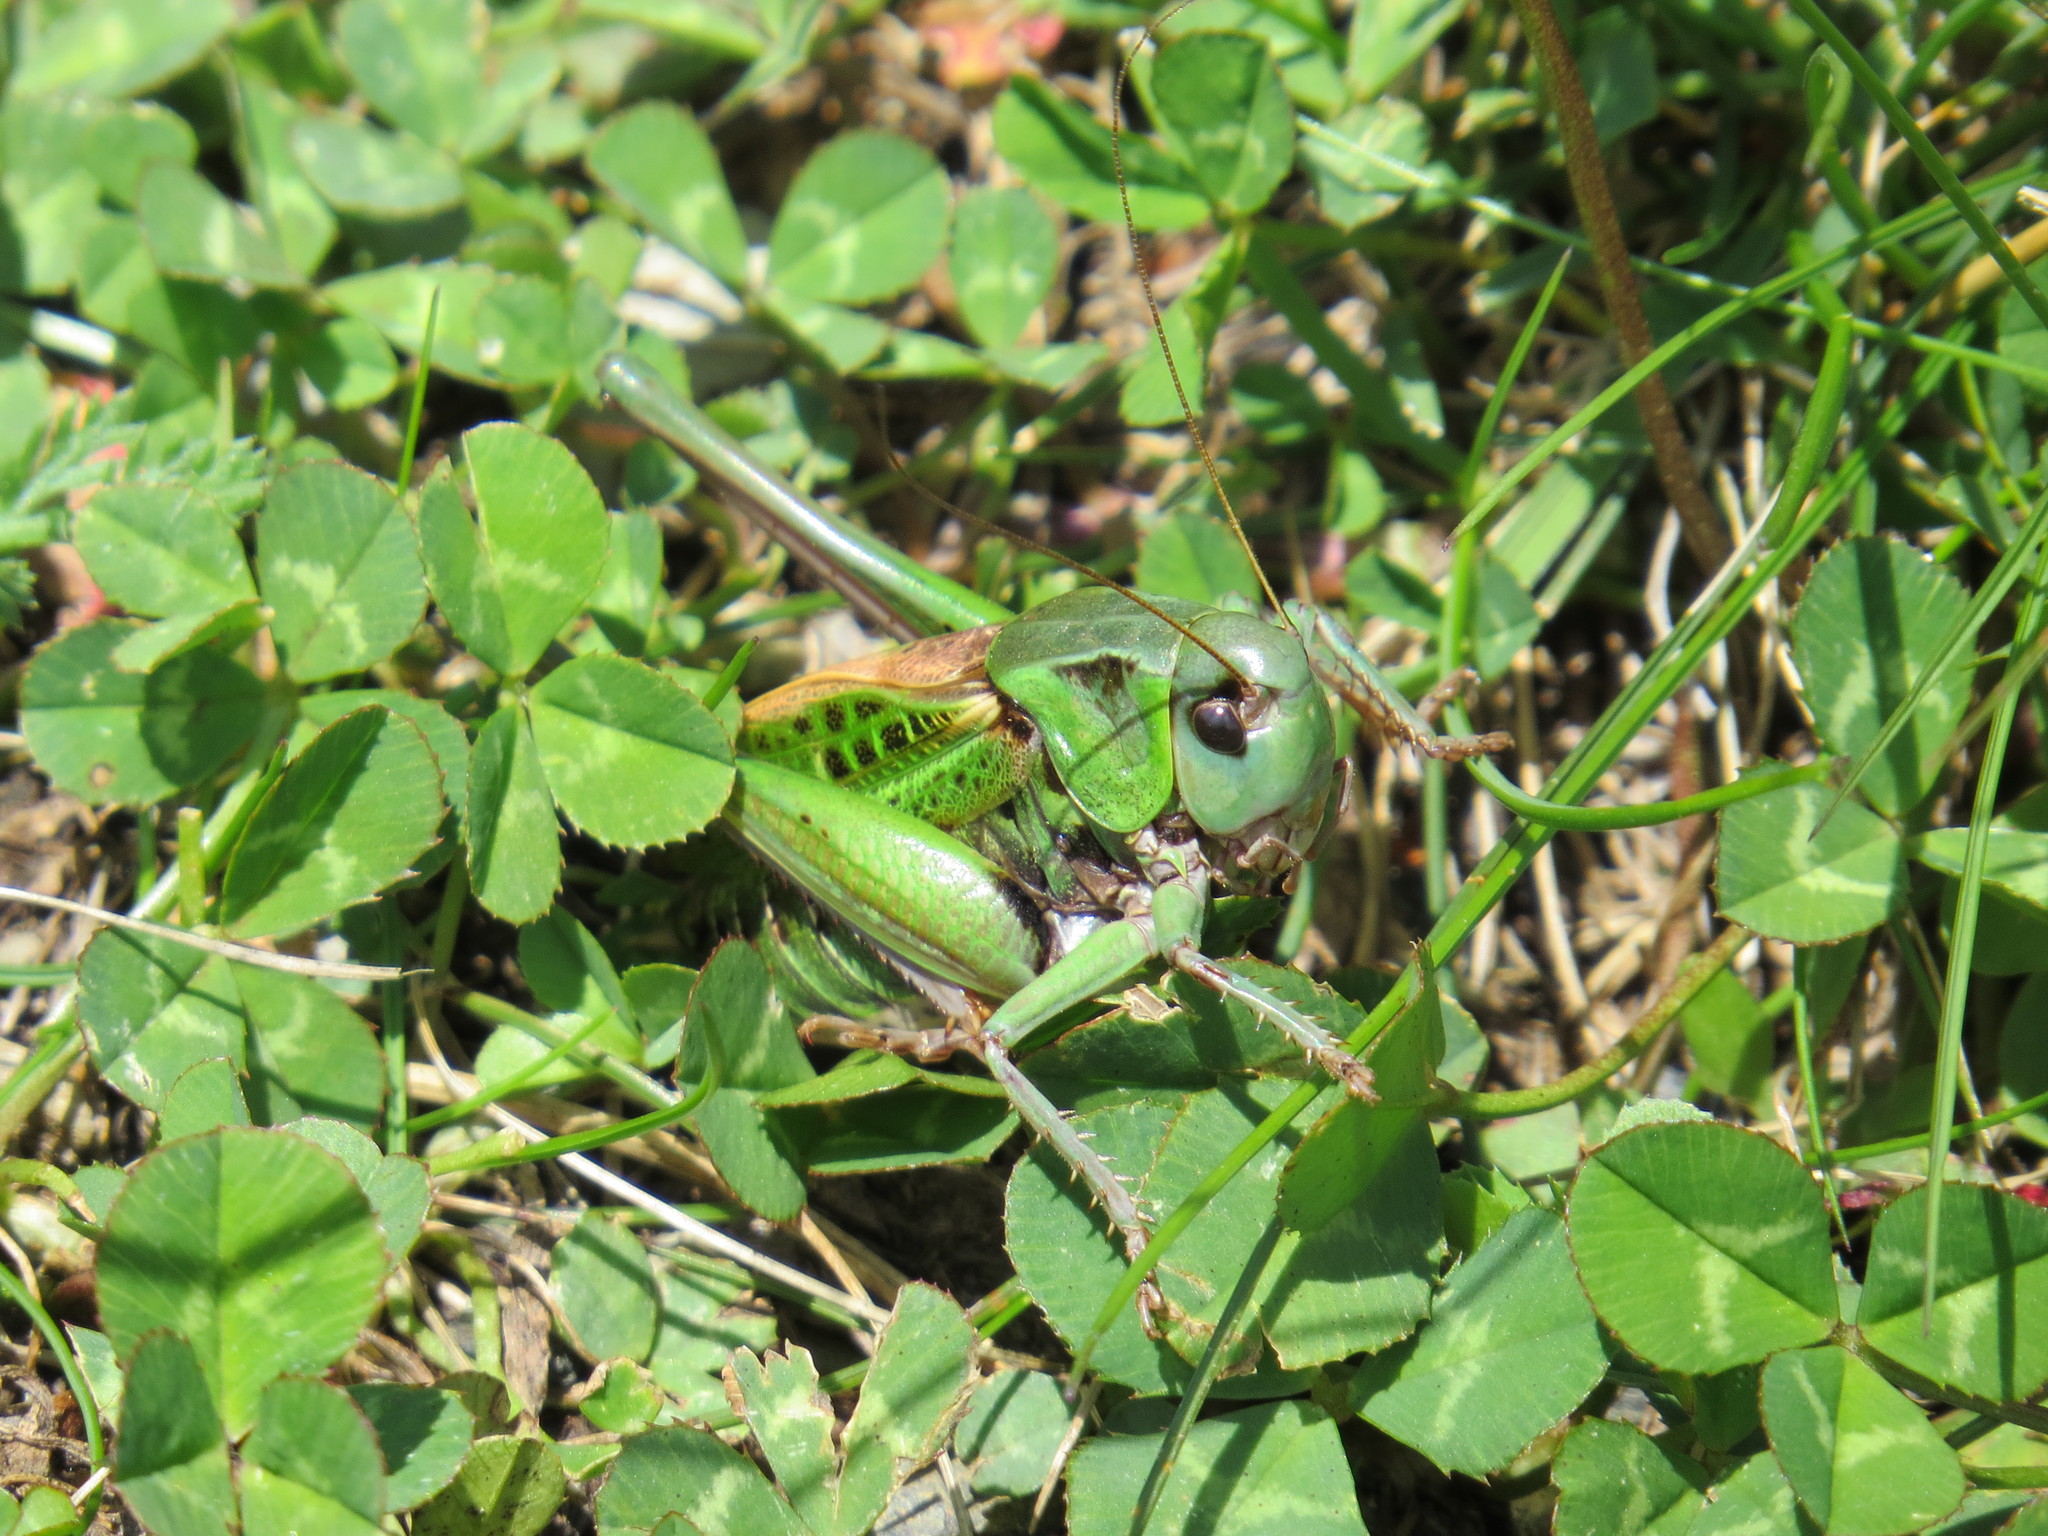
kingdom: Animalia
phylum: Arthropoda
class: Insecta
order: Orthoptera
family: Tettigoniidae
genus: Decticus
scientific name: Decticus verrucivorus
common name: Wart-biter
